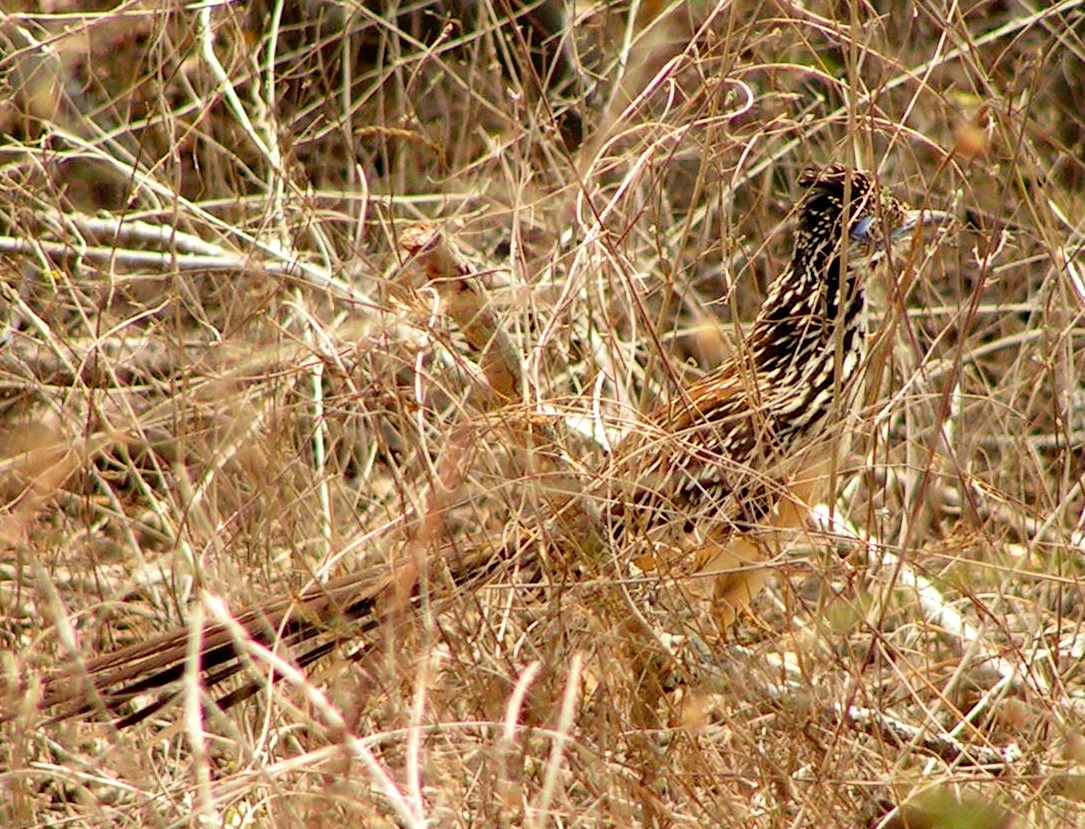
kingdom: Animalia
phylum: Chordata
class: Aves
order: Cuculiformes
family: Cuculidae
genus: Geococcyx
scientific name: Geococcyx velox
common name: Lesser roadrunner
